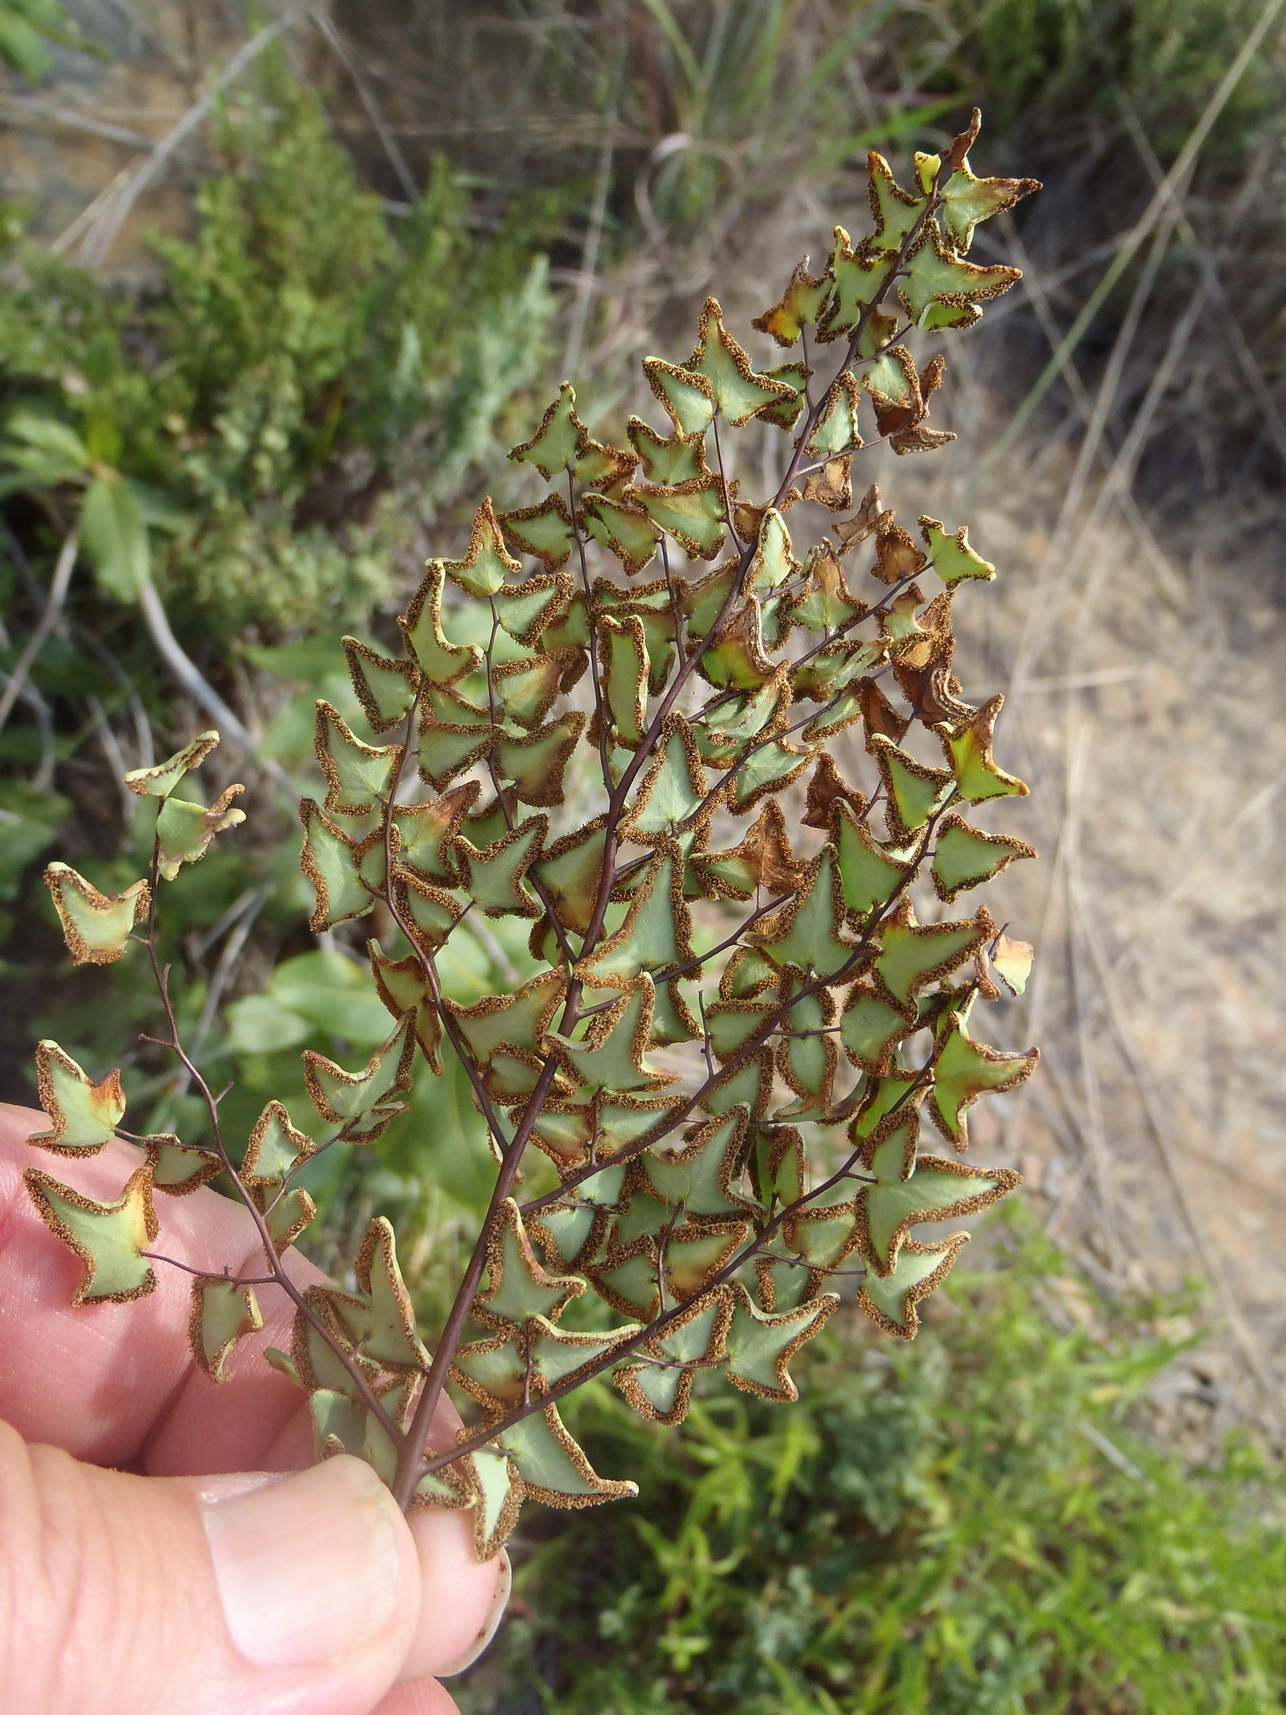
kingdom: Plantae
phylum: Tracheophyta
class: Polypodiopsida
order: Polypodiales
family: Pteridaceae
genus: Pellaea
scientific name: Pellaea calomelanos
